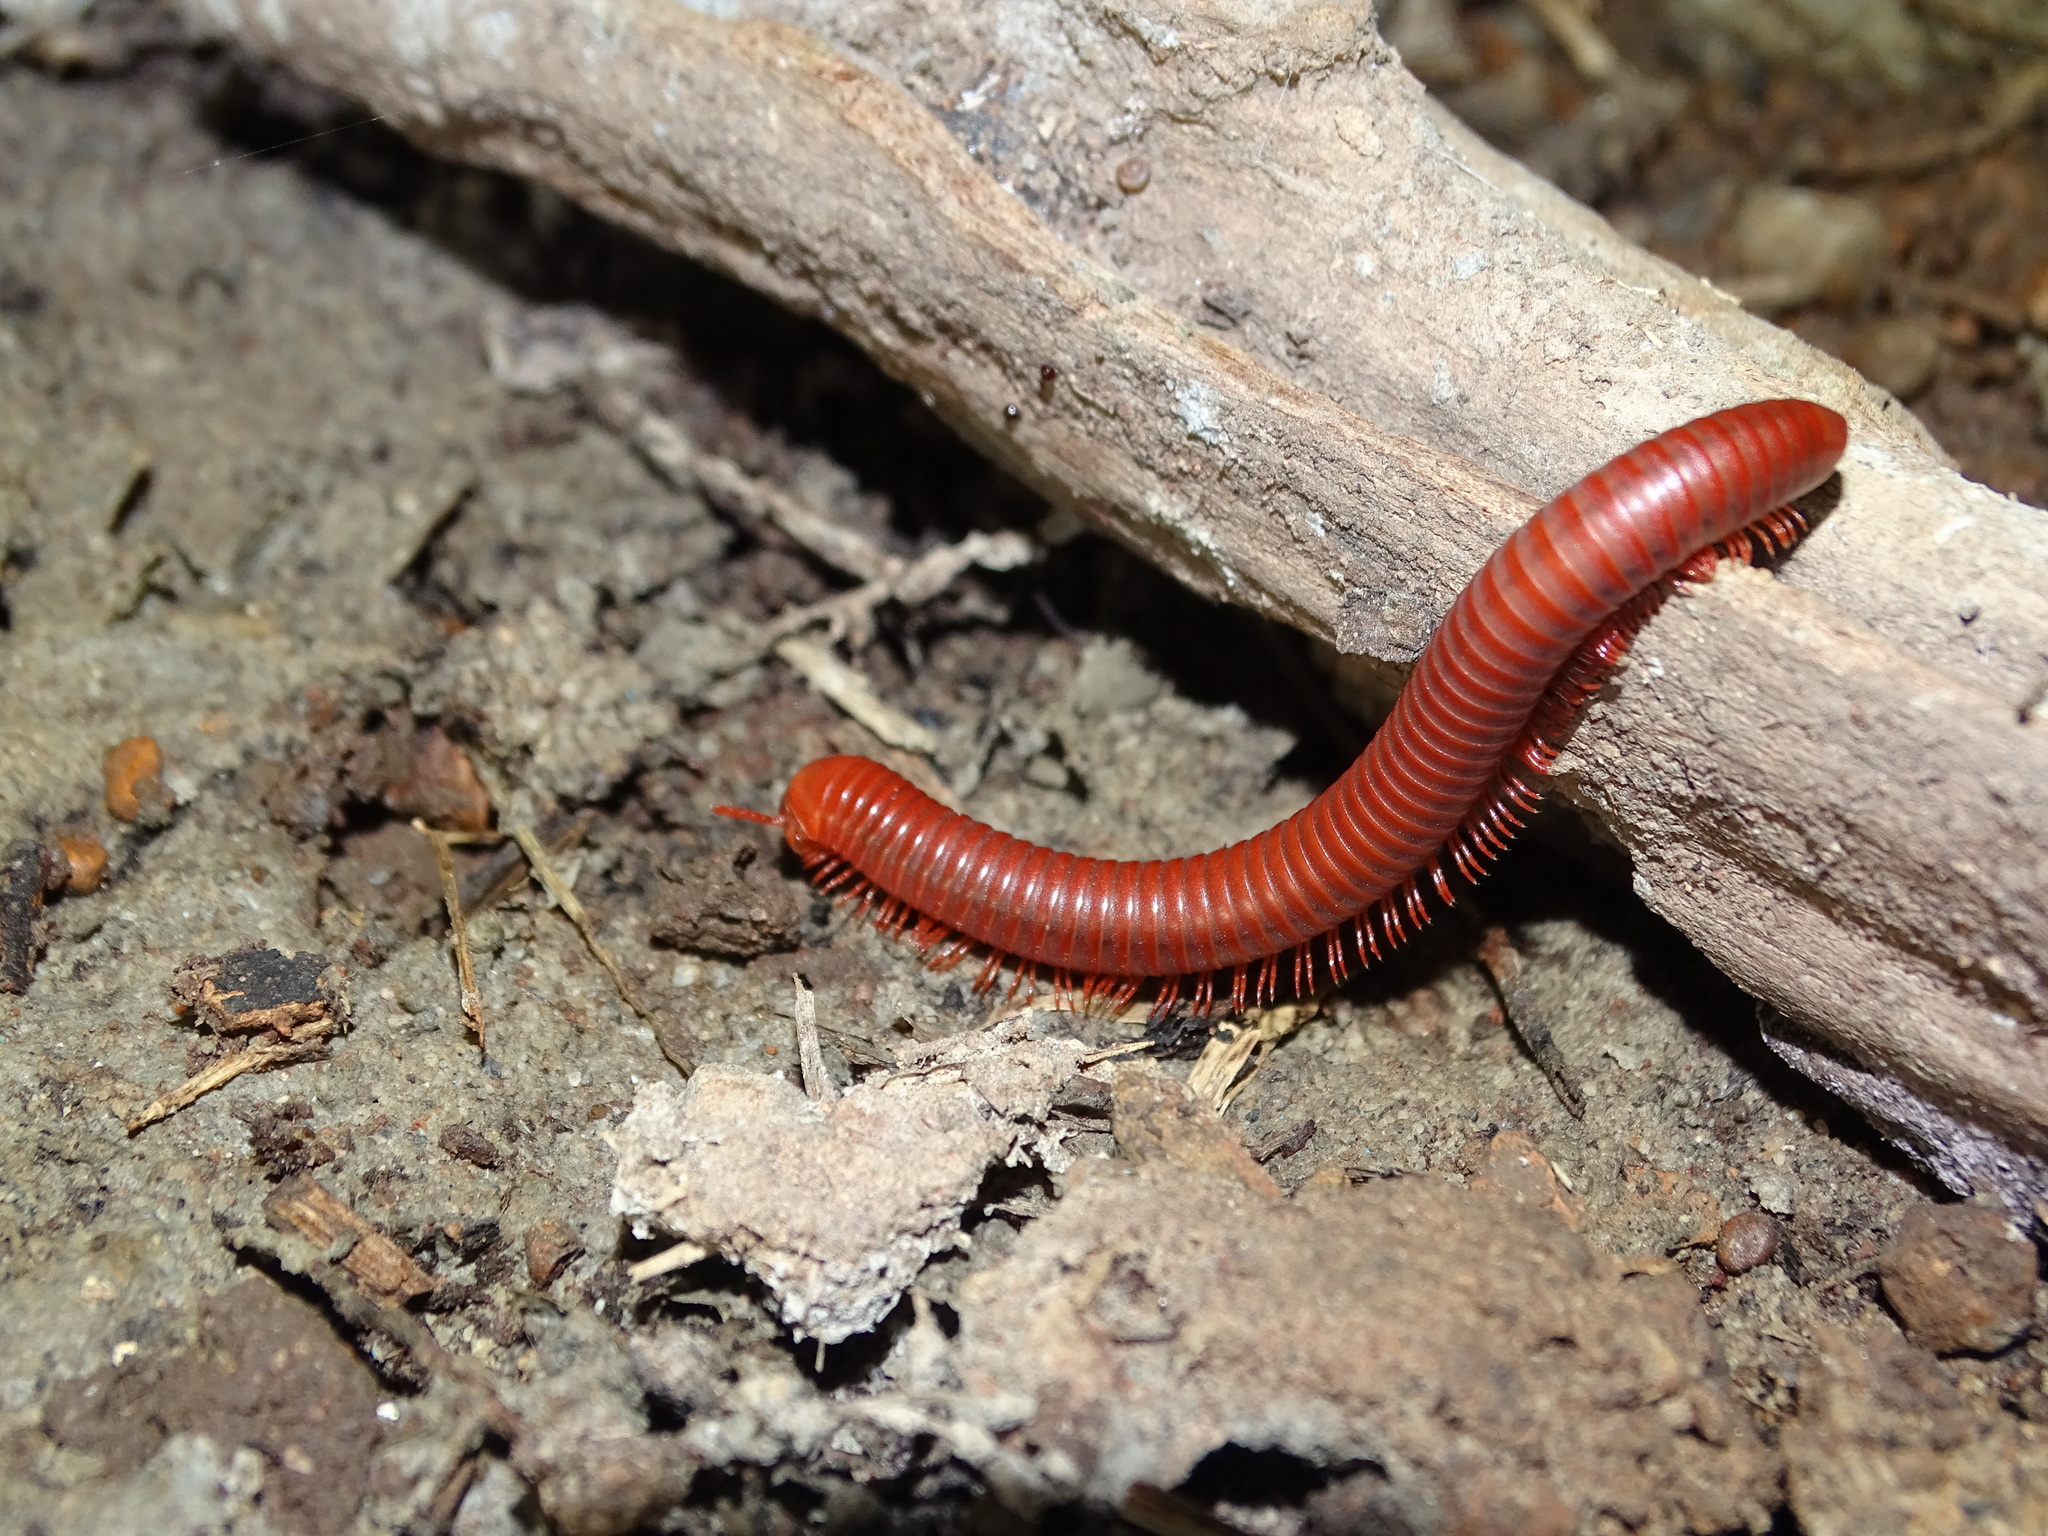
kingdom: Animalia
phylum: Arthropoda
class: Diplopoda
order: Spirobolida
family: Pachybolidae
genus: Trigoniulus
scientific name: Trigoniulus corallinus
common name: Millipede
